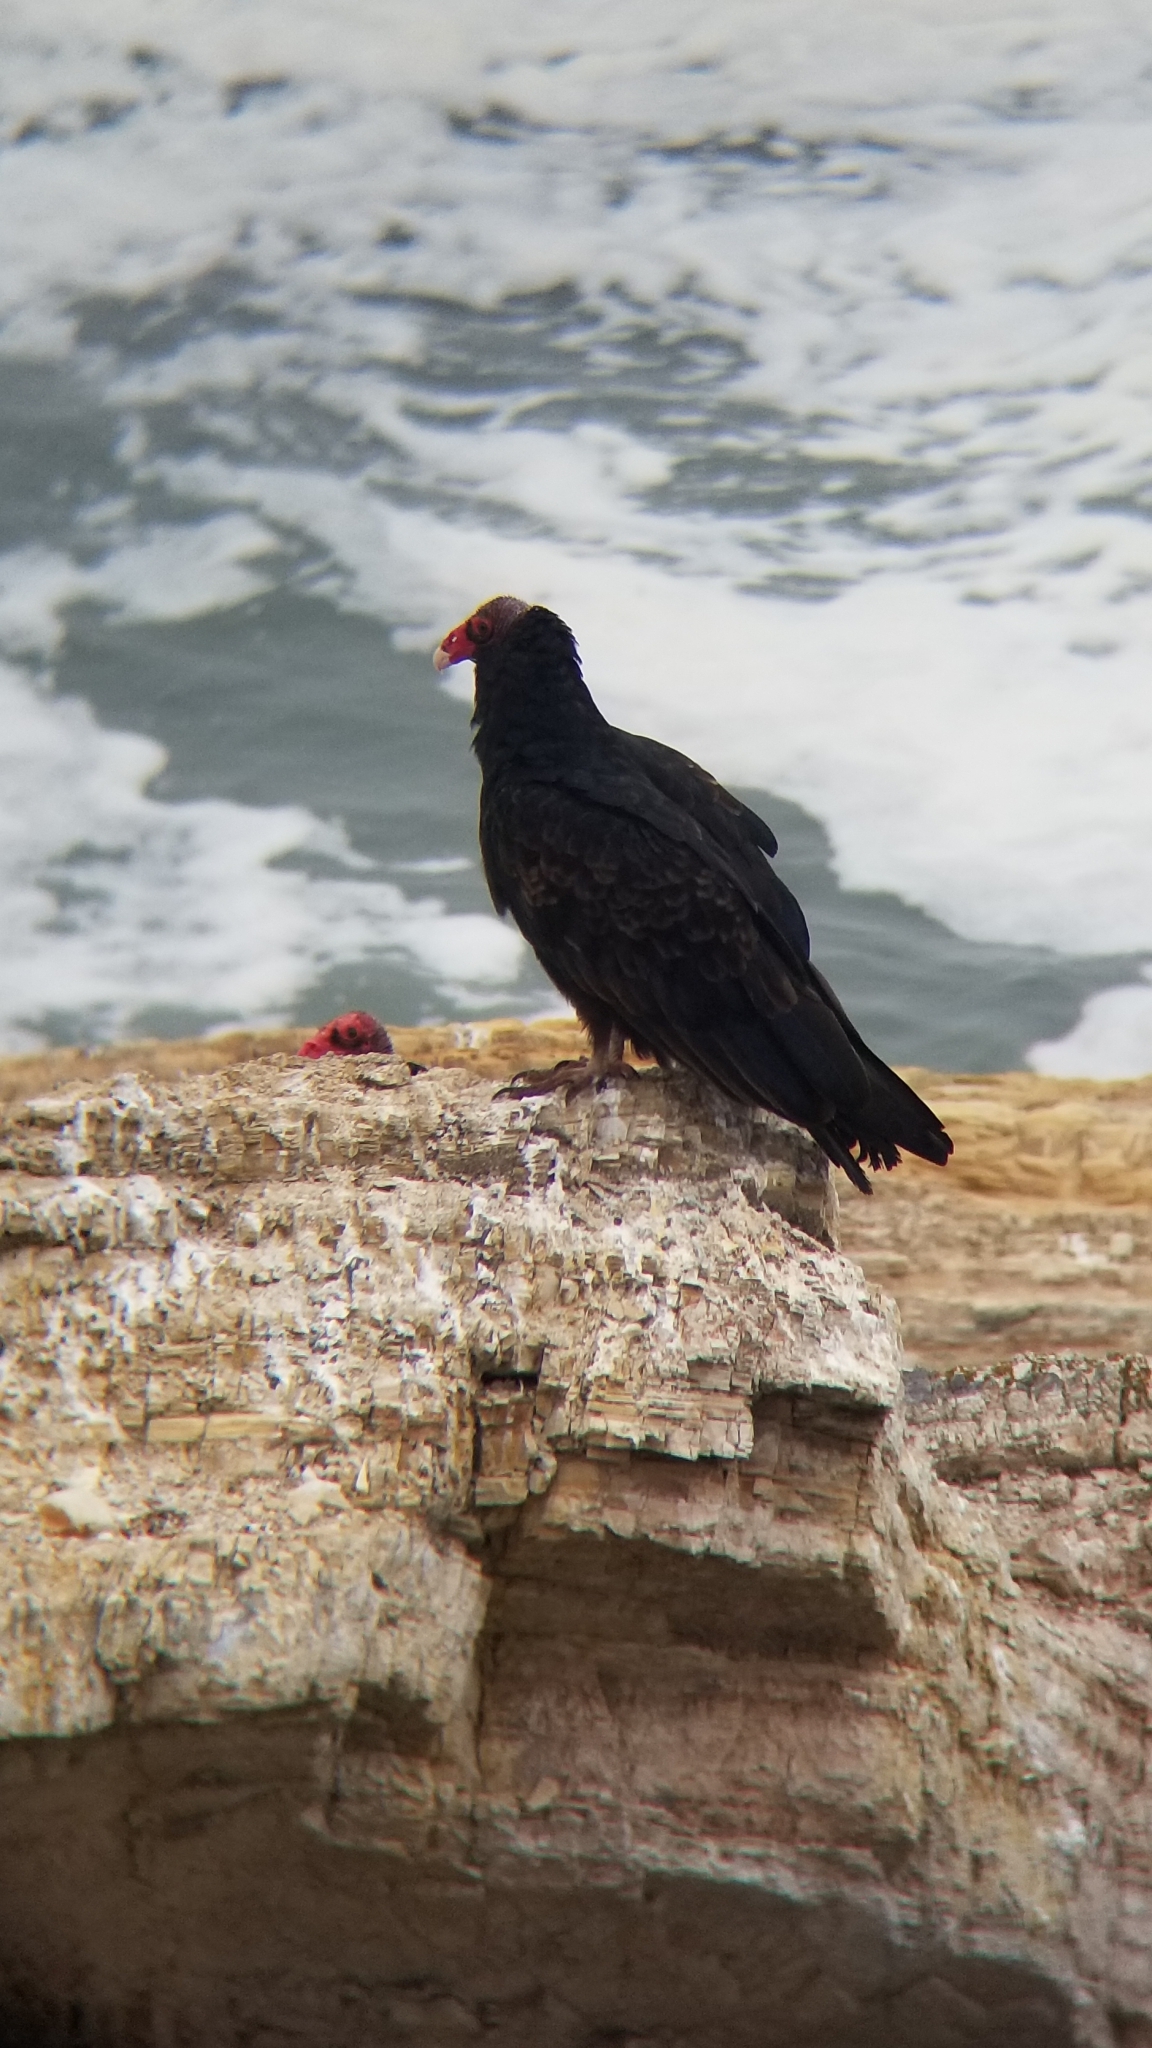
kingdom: Animalia
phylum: Chordata
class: Aves
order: Accipitriformes
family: Cathartidae
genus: Cathartes
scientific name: Cathartes aura
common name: Turkey vulture
